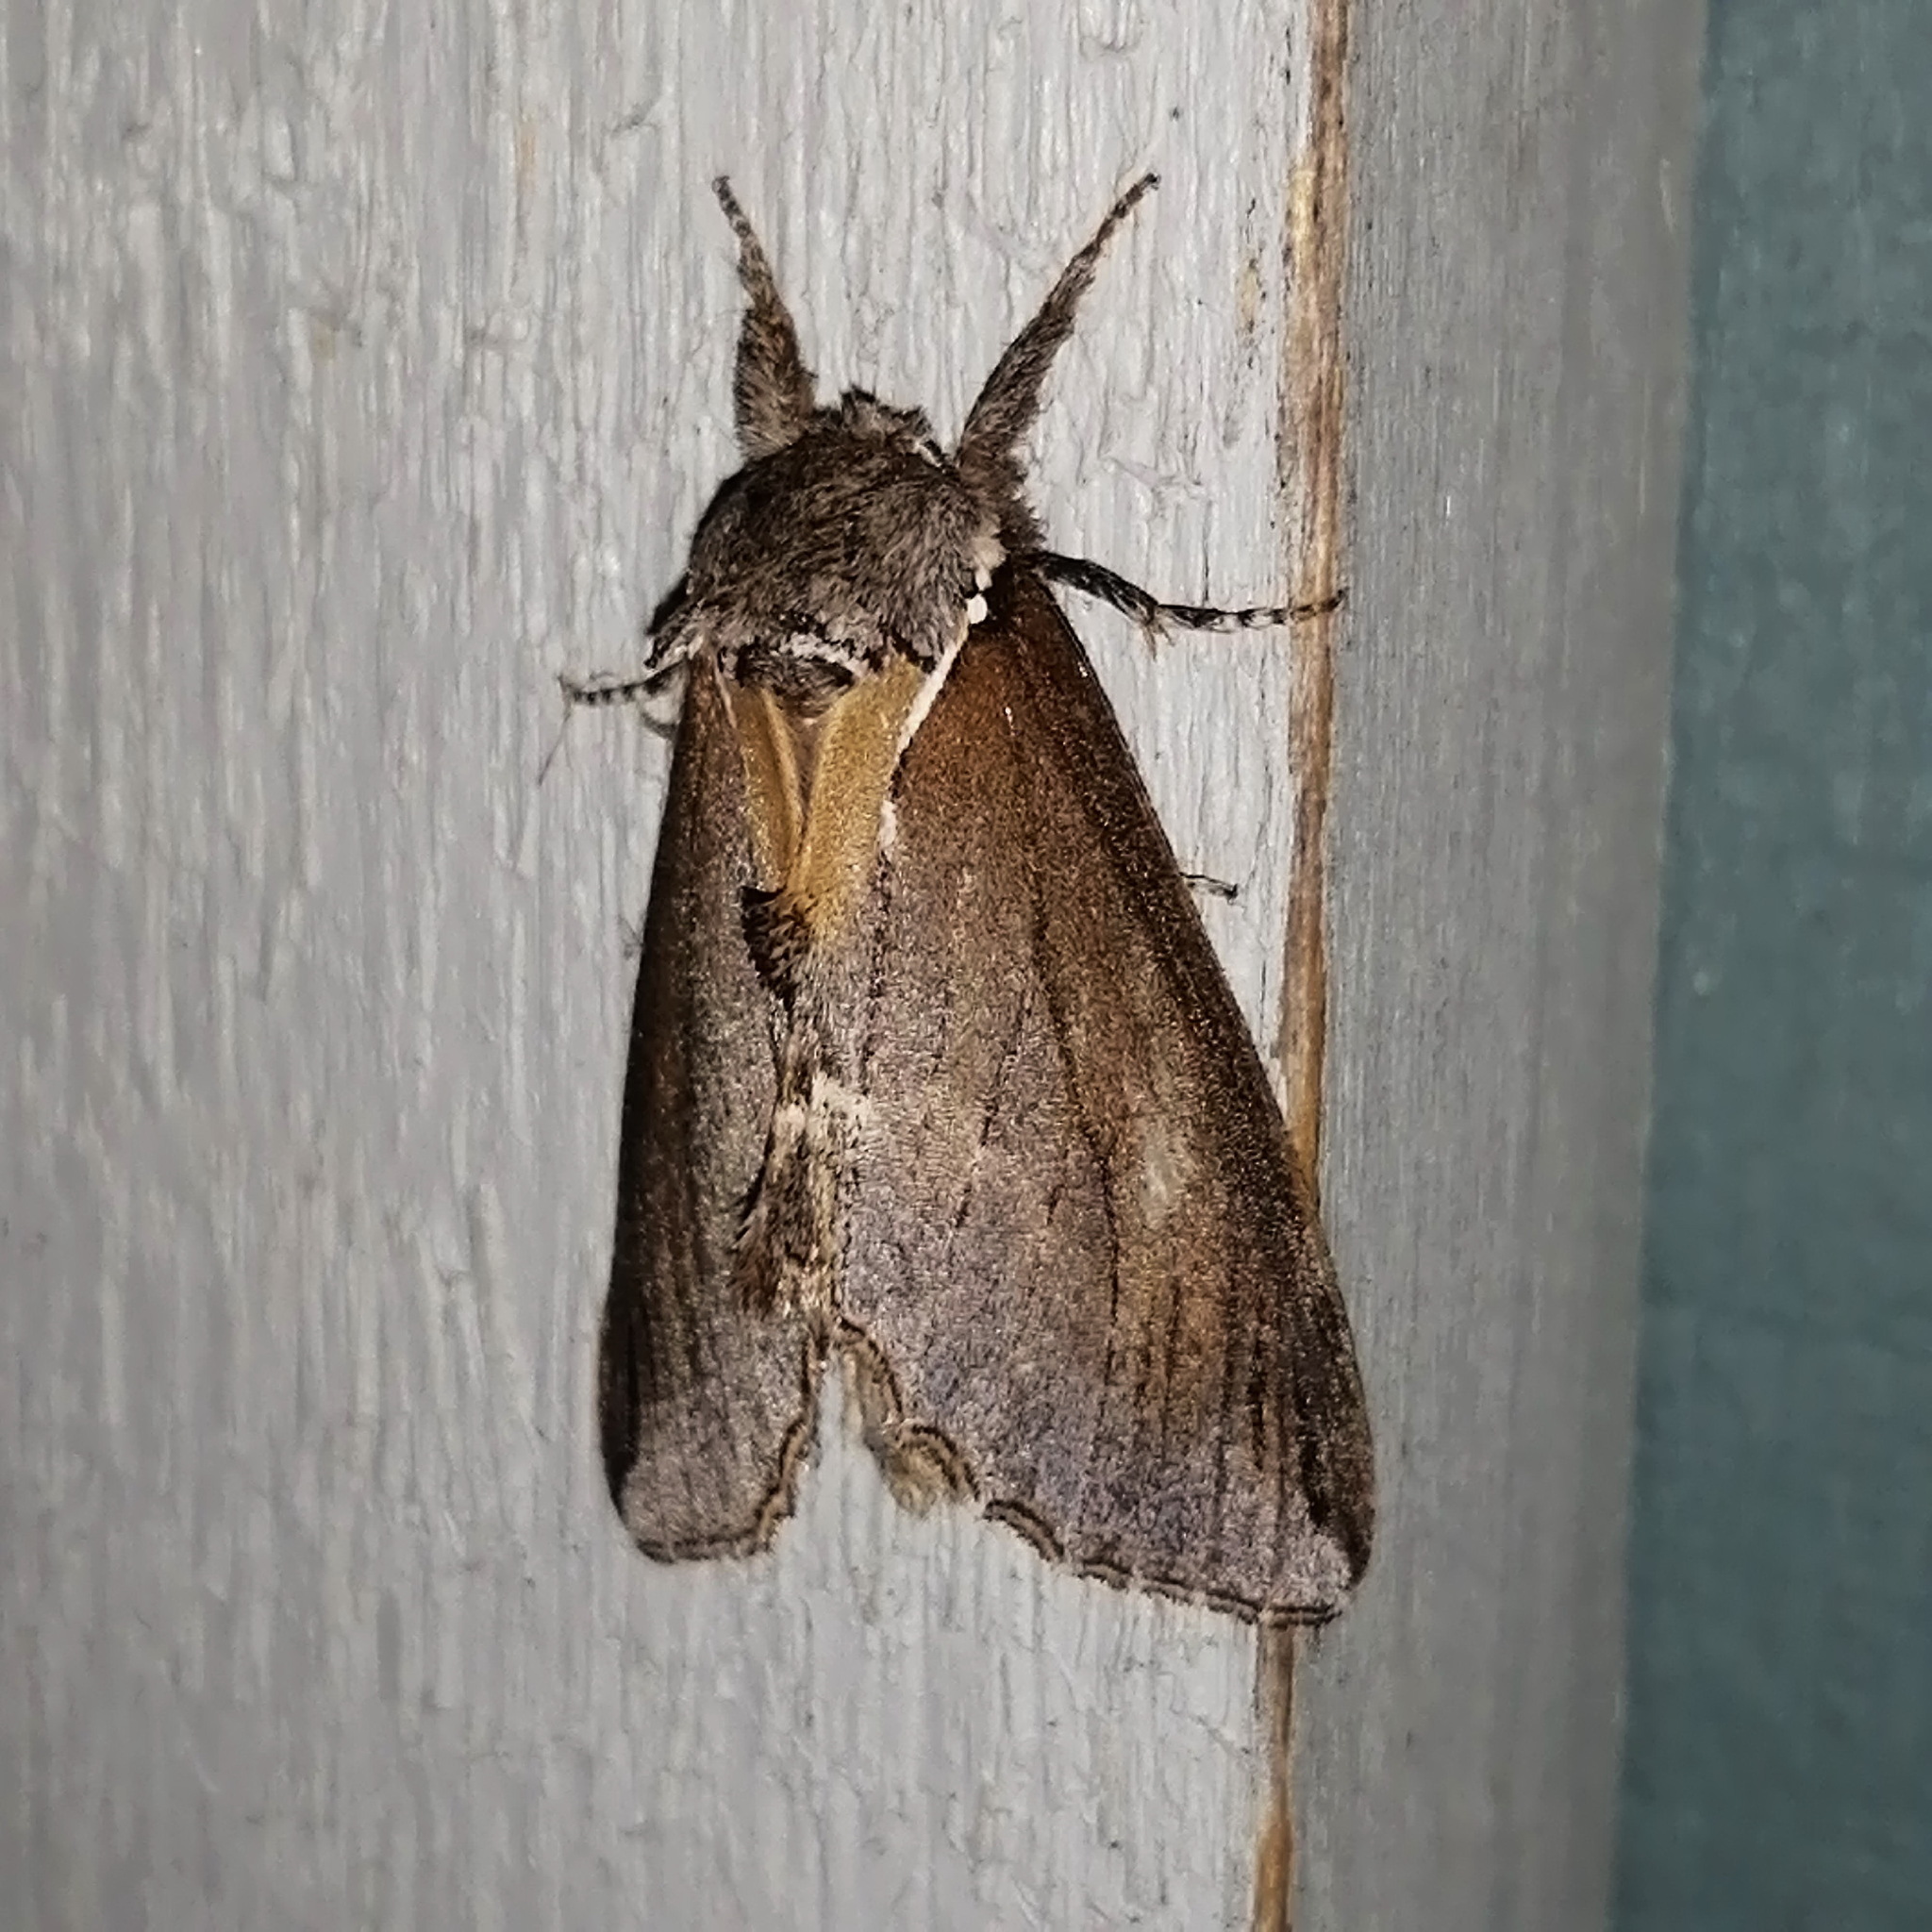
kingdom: Animalia
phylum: Arthropoda
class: Insecta
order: Lepidoptera
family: Notodontidae
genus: Pheosidea
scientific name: Pheosidea elegans
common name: Elegant prominent
